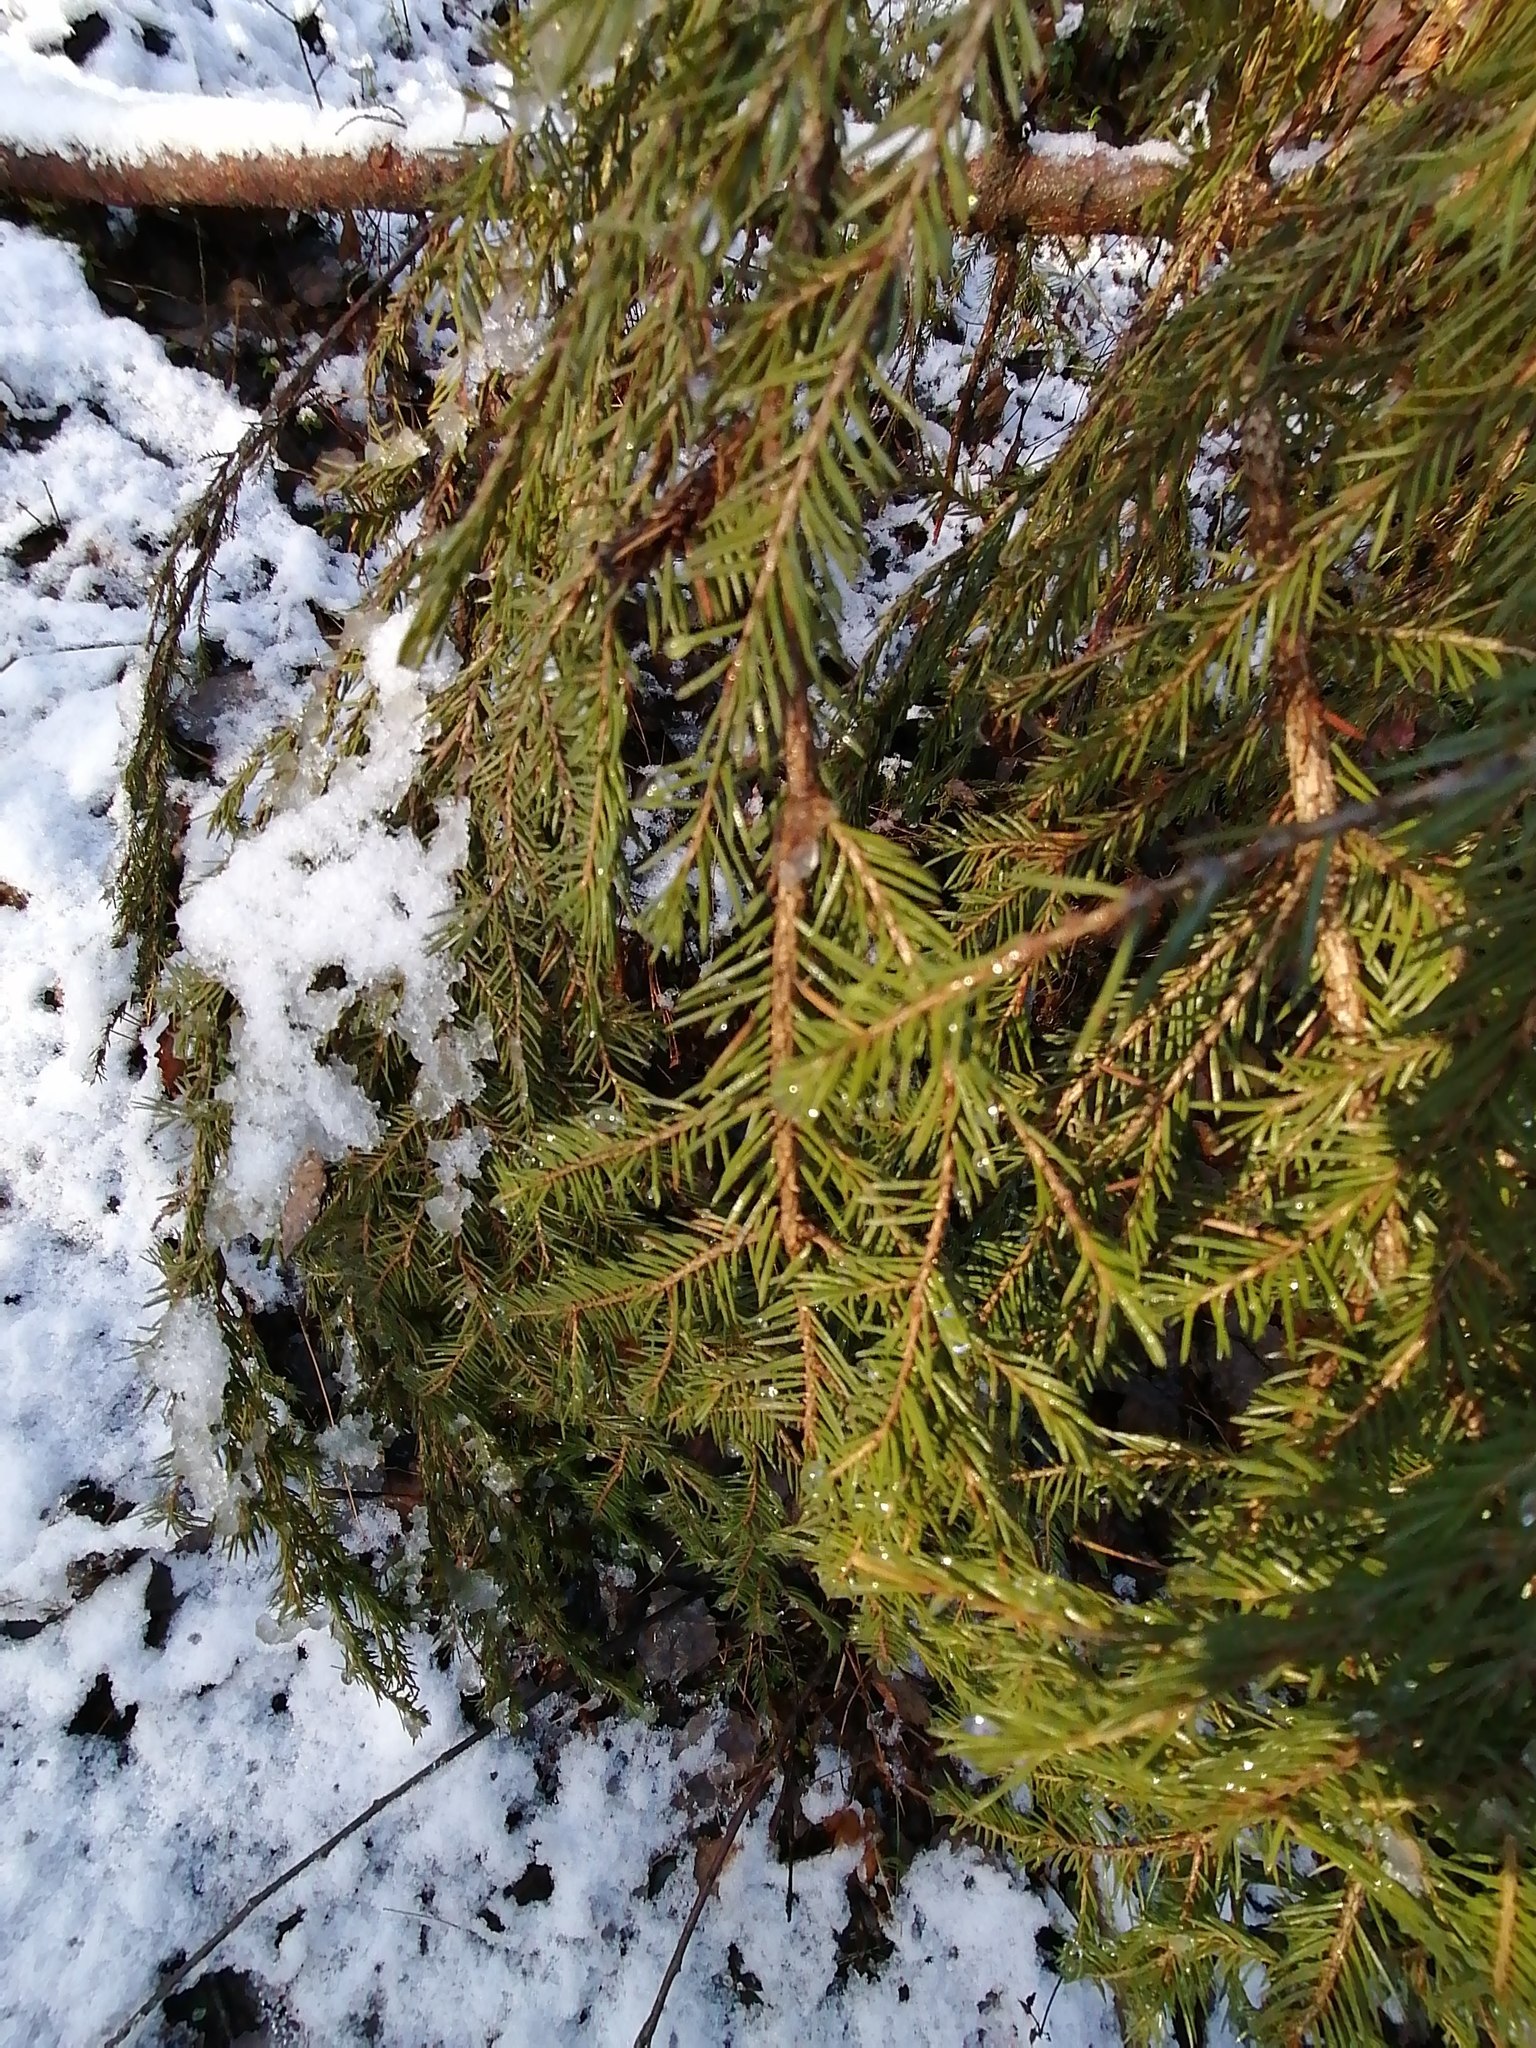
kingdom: Plantae
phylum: Tracheophyta
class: Pinopsida
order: Pinales
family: Pinaceae
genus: Picea
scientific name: Picea obovata
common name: Siberian spruce
